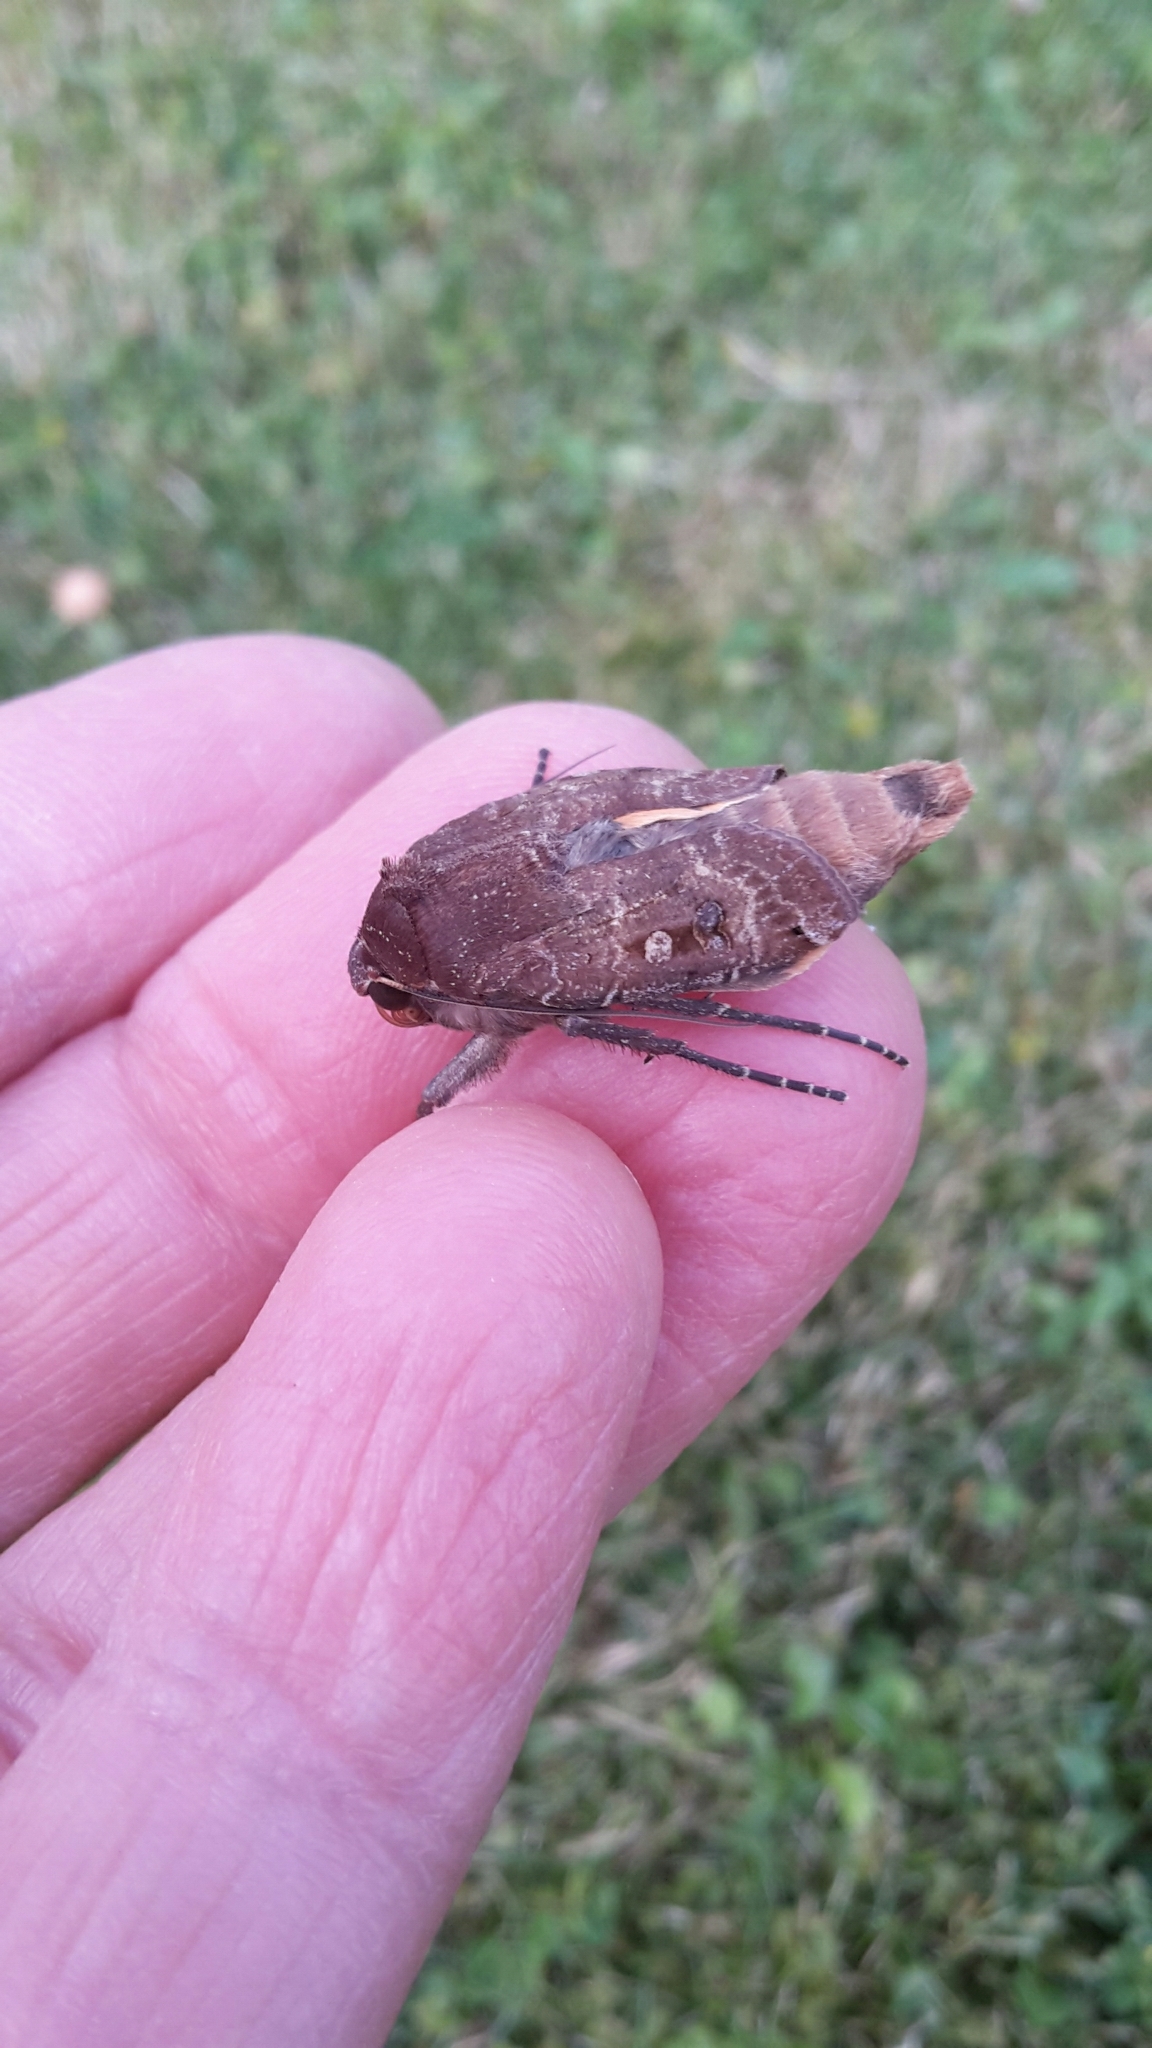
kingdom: Animalia
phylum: Arthropoda
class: Insecta
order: Lepidoptera
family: Noctuidae
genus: Noctua
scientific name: Noctua pronuba
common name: Large yellow underwing
